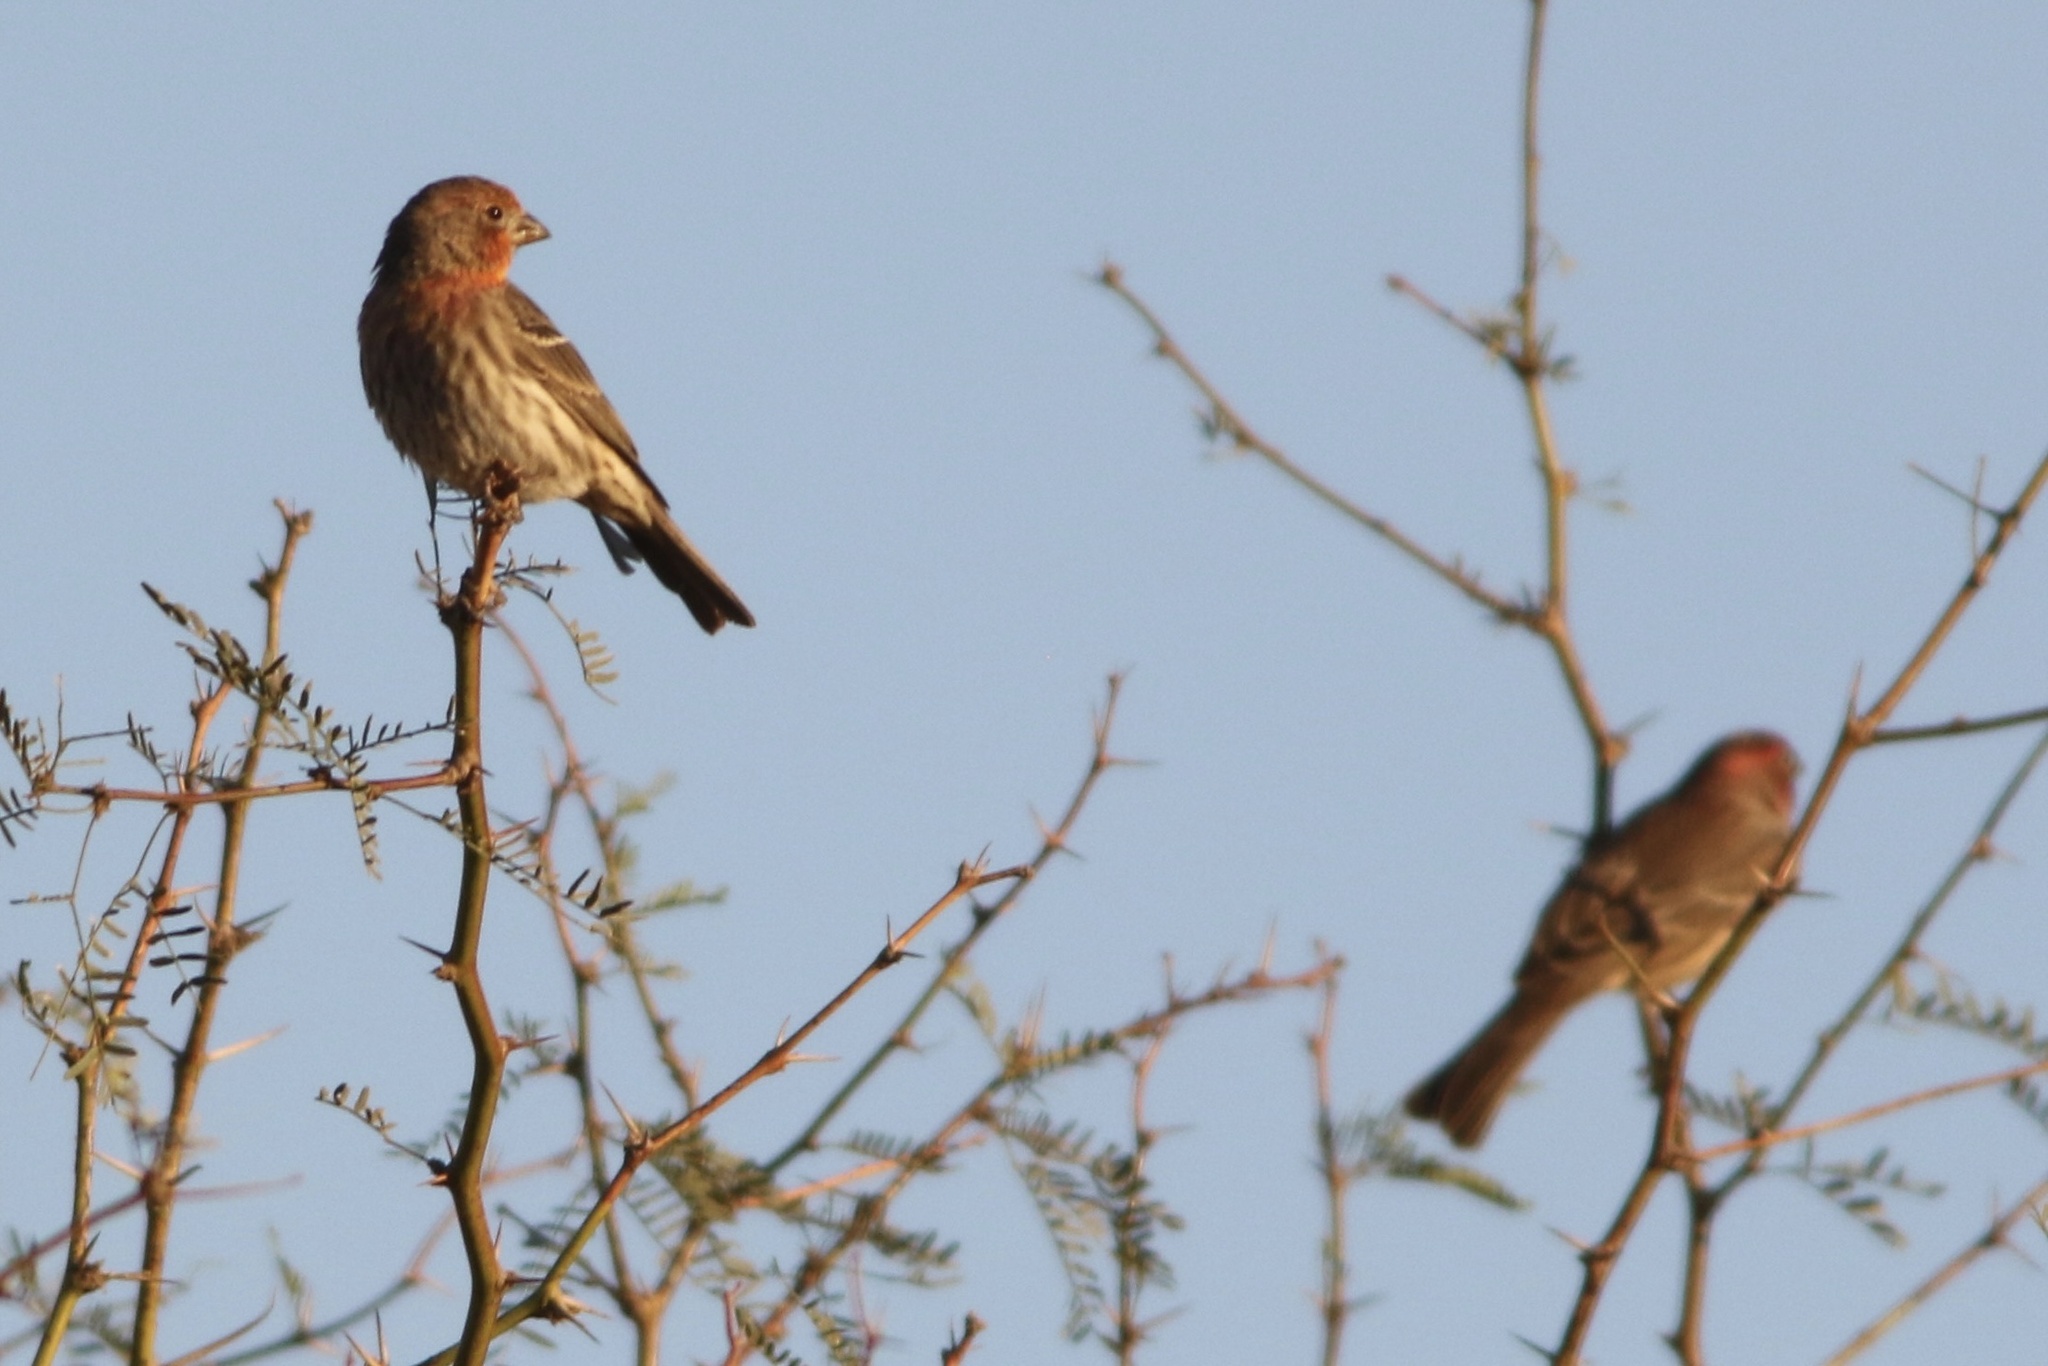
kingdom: Animalia
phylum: Chordata
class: Aves
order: Passeriformes
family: Fringillidae
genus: Haemorhous
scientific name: Haemorhous mexicanus
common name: House finch
